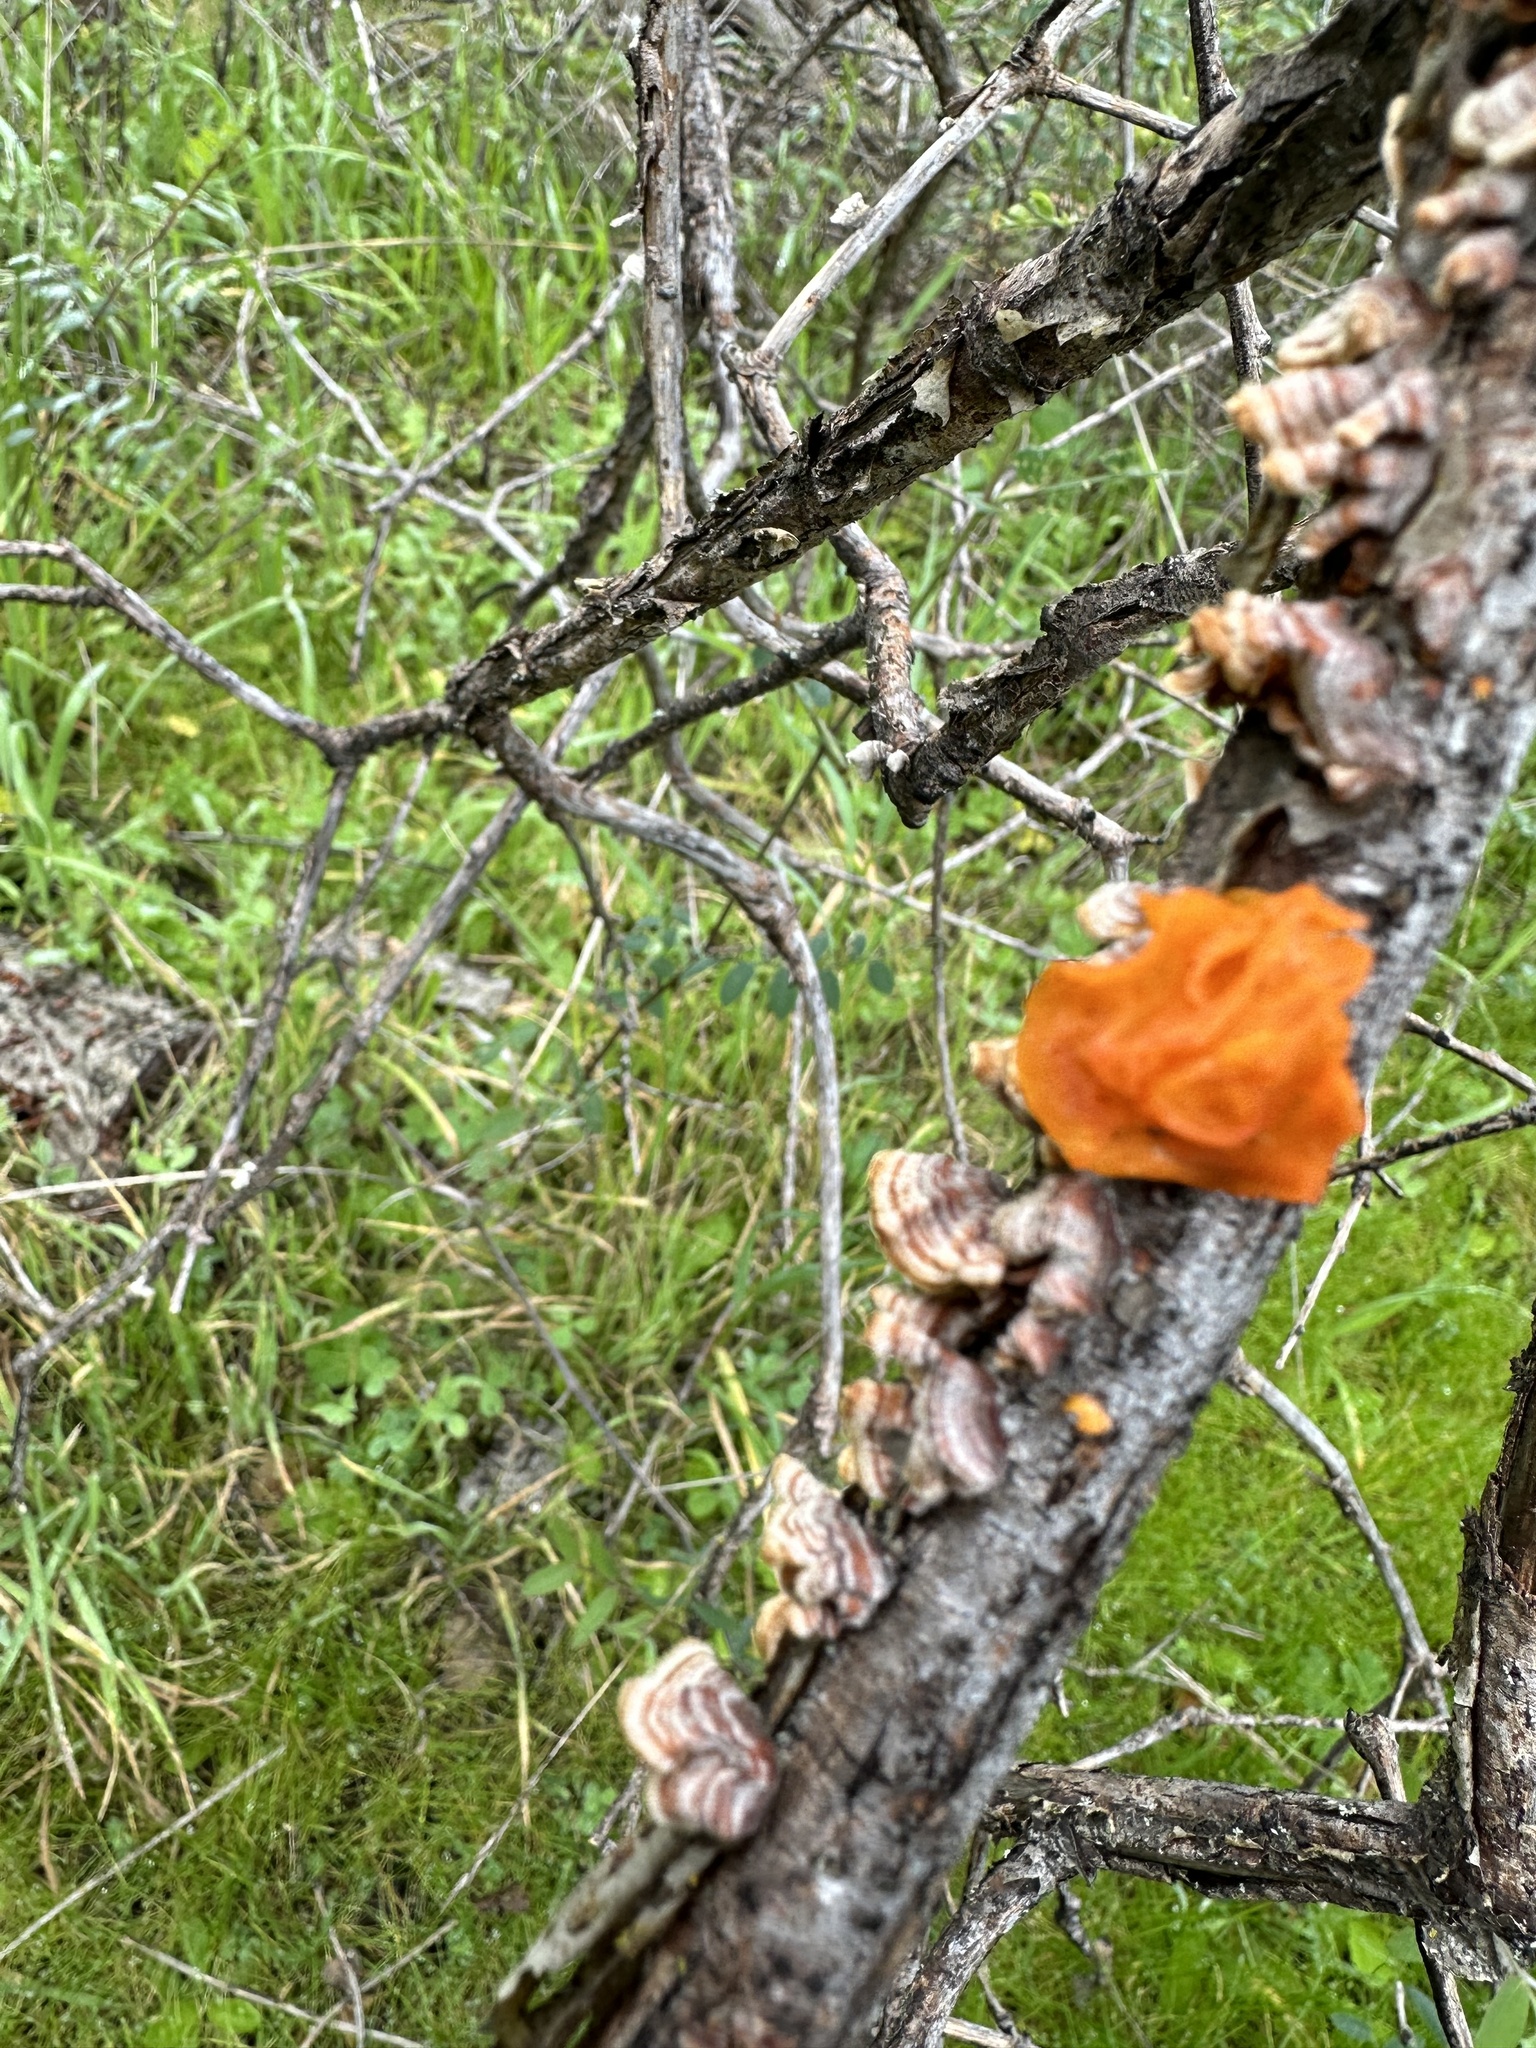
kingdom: Fungi
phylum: Basidiomycota
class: Tremellomycetes
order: Tremellales
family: Naemateliaceae
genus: Naematelia
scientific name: Naematelia aurantia
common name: Golden ear
